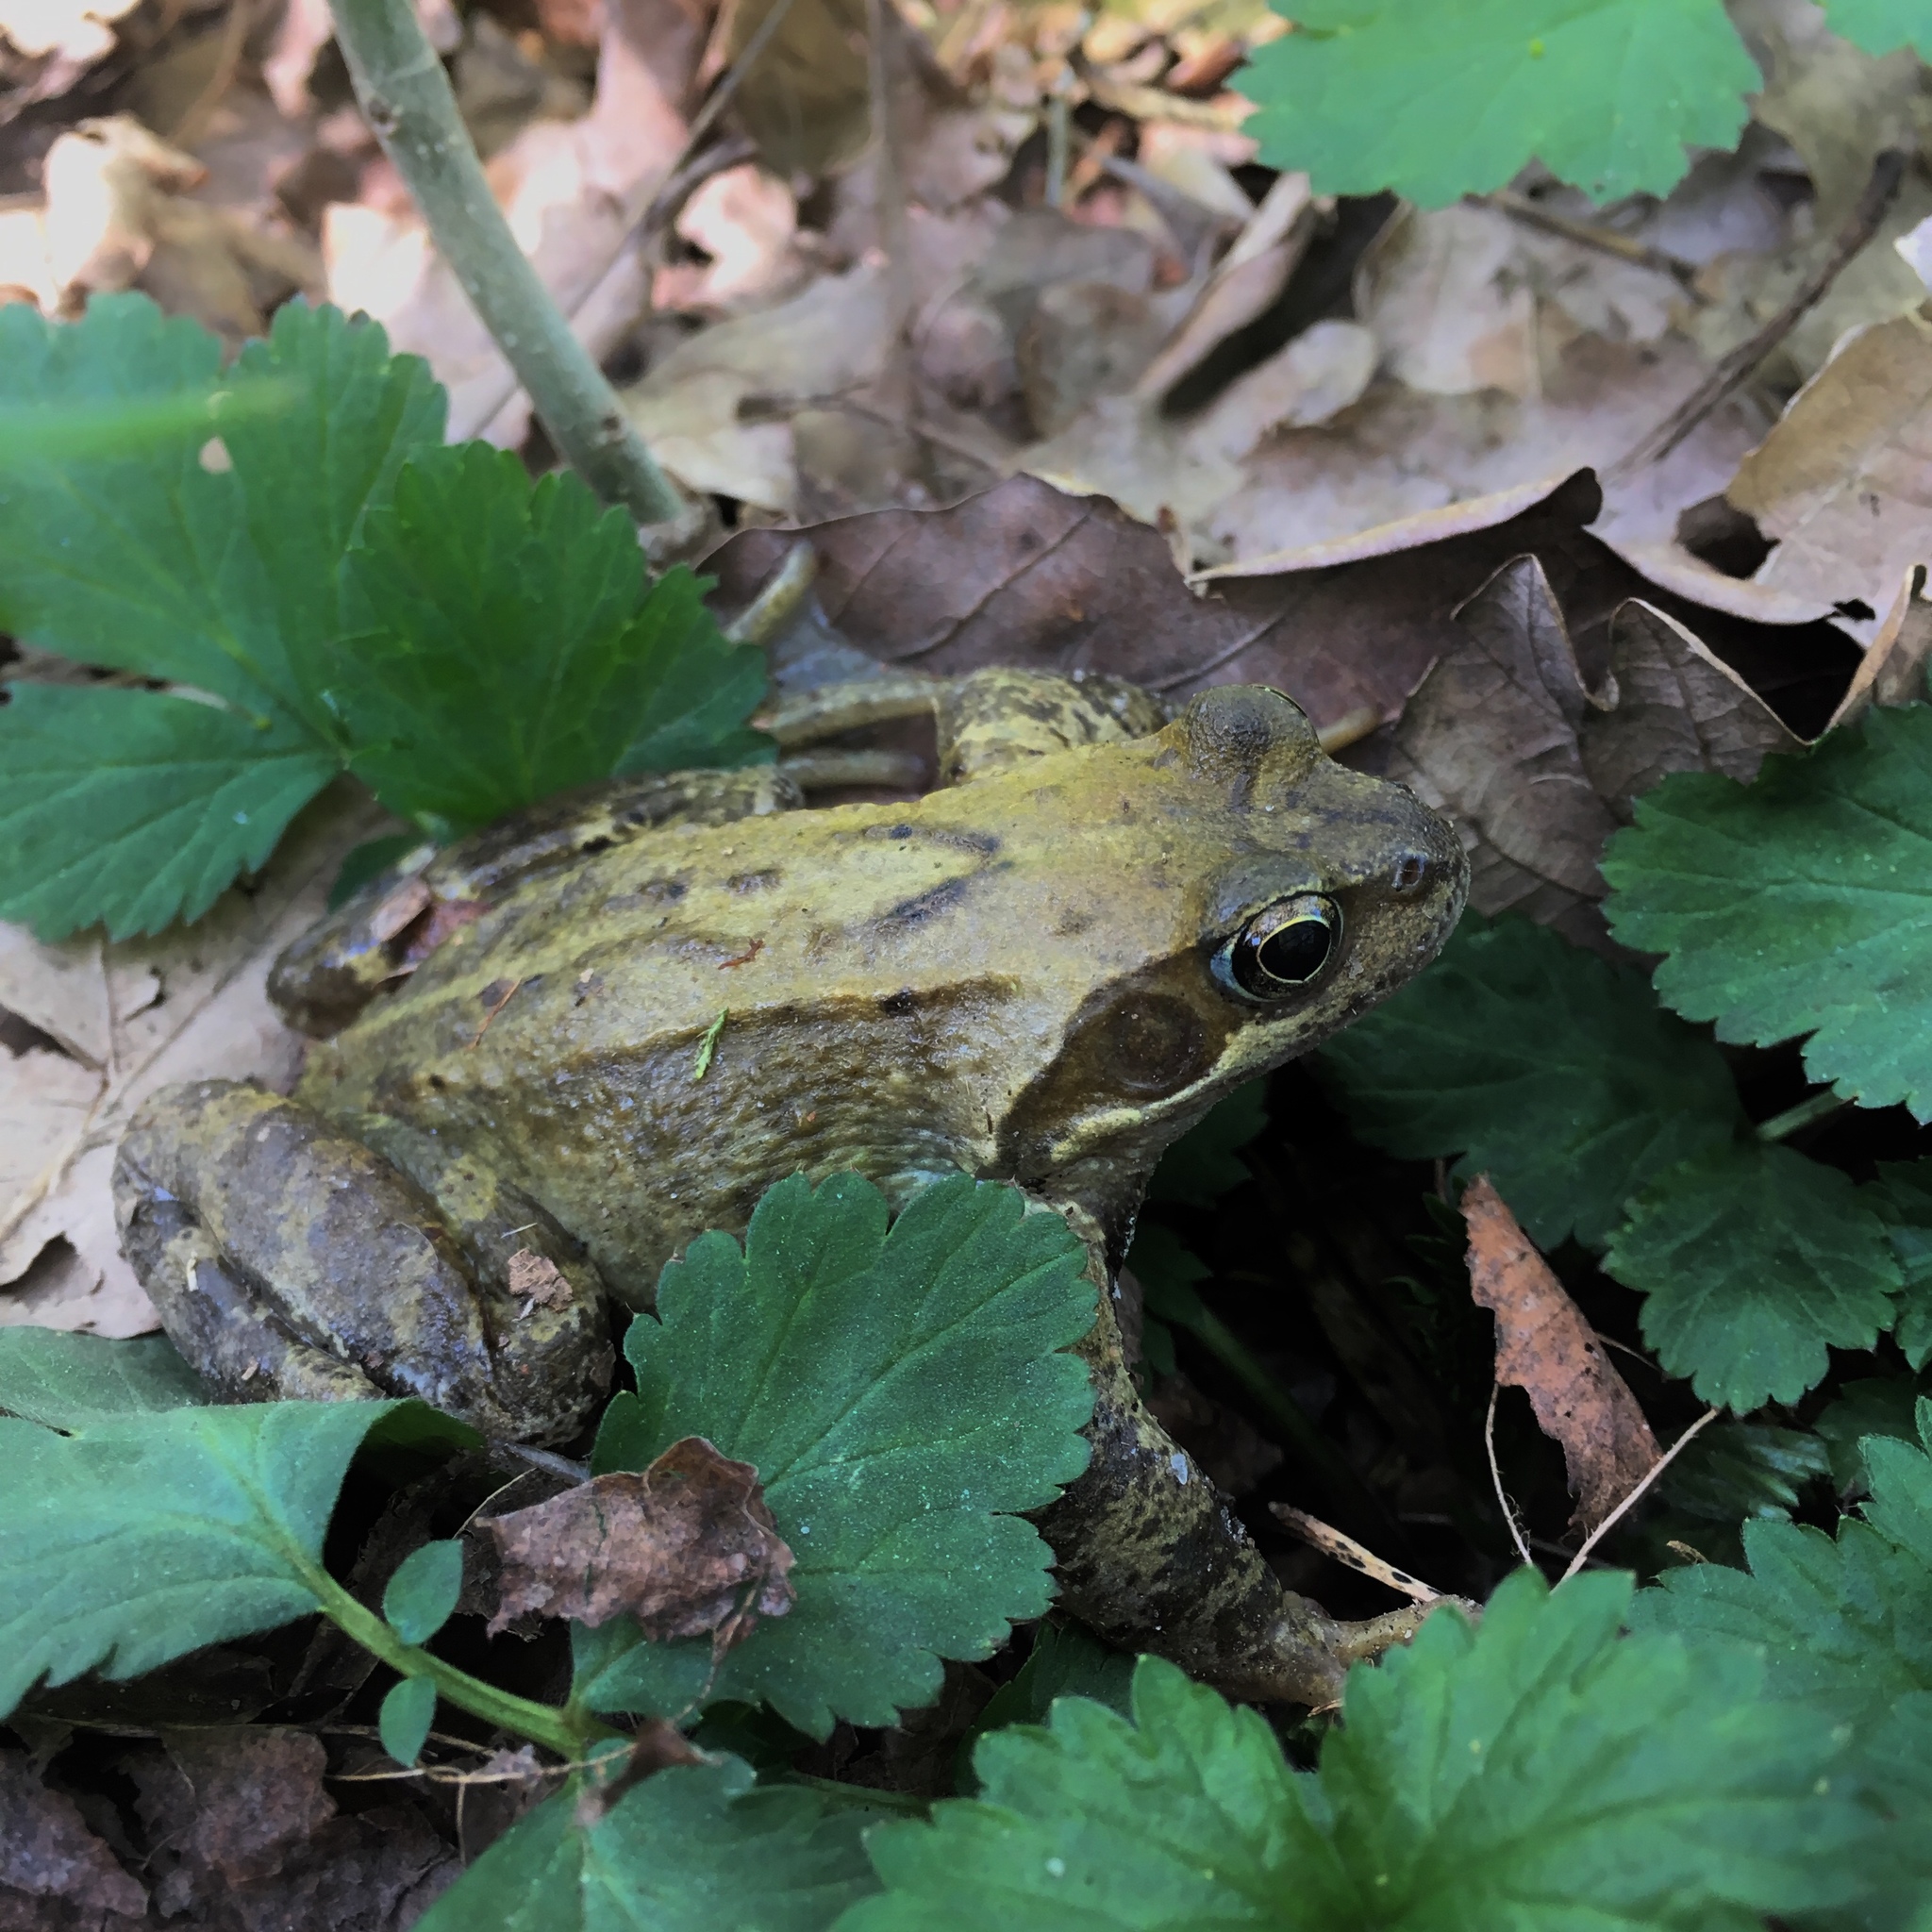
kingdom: Animalia
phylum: Chordata
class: Amphibia
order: Anura
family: Ranidae
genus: Rana
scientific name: Rana temporaria
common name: Common frog
